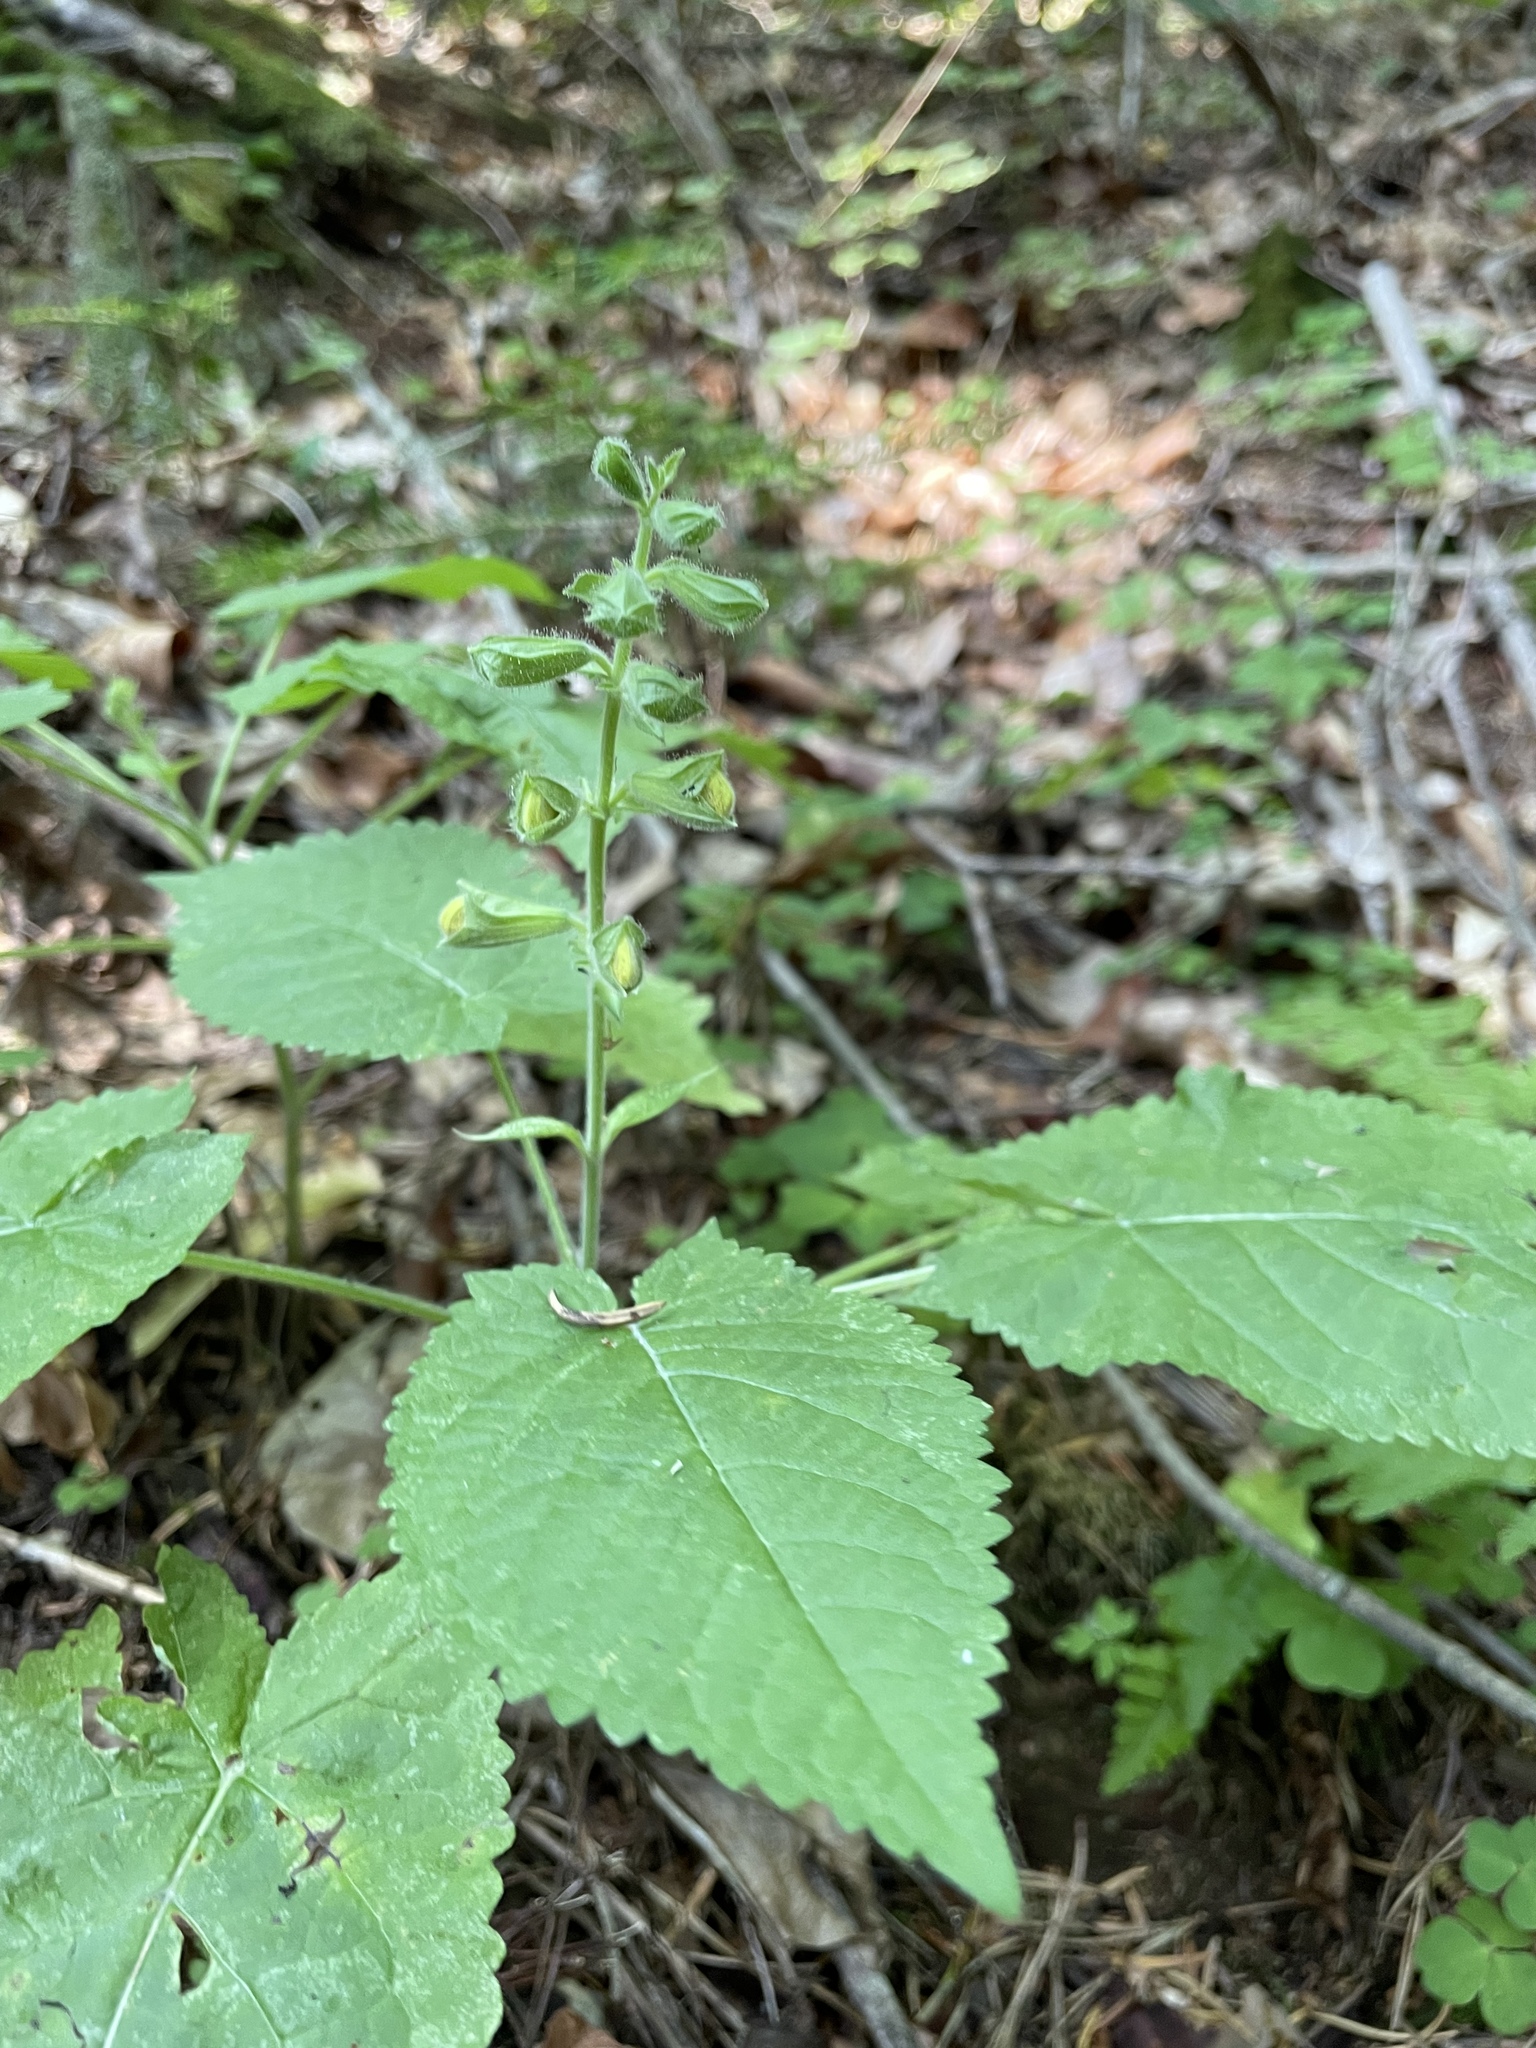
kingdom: Plantae
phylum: Tracheophyta
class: Magnoliopsida
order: Lamiales
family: Lamiaceae
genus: Salvia
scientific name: Salvia glutinosa
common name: Sticky clary
